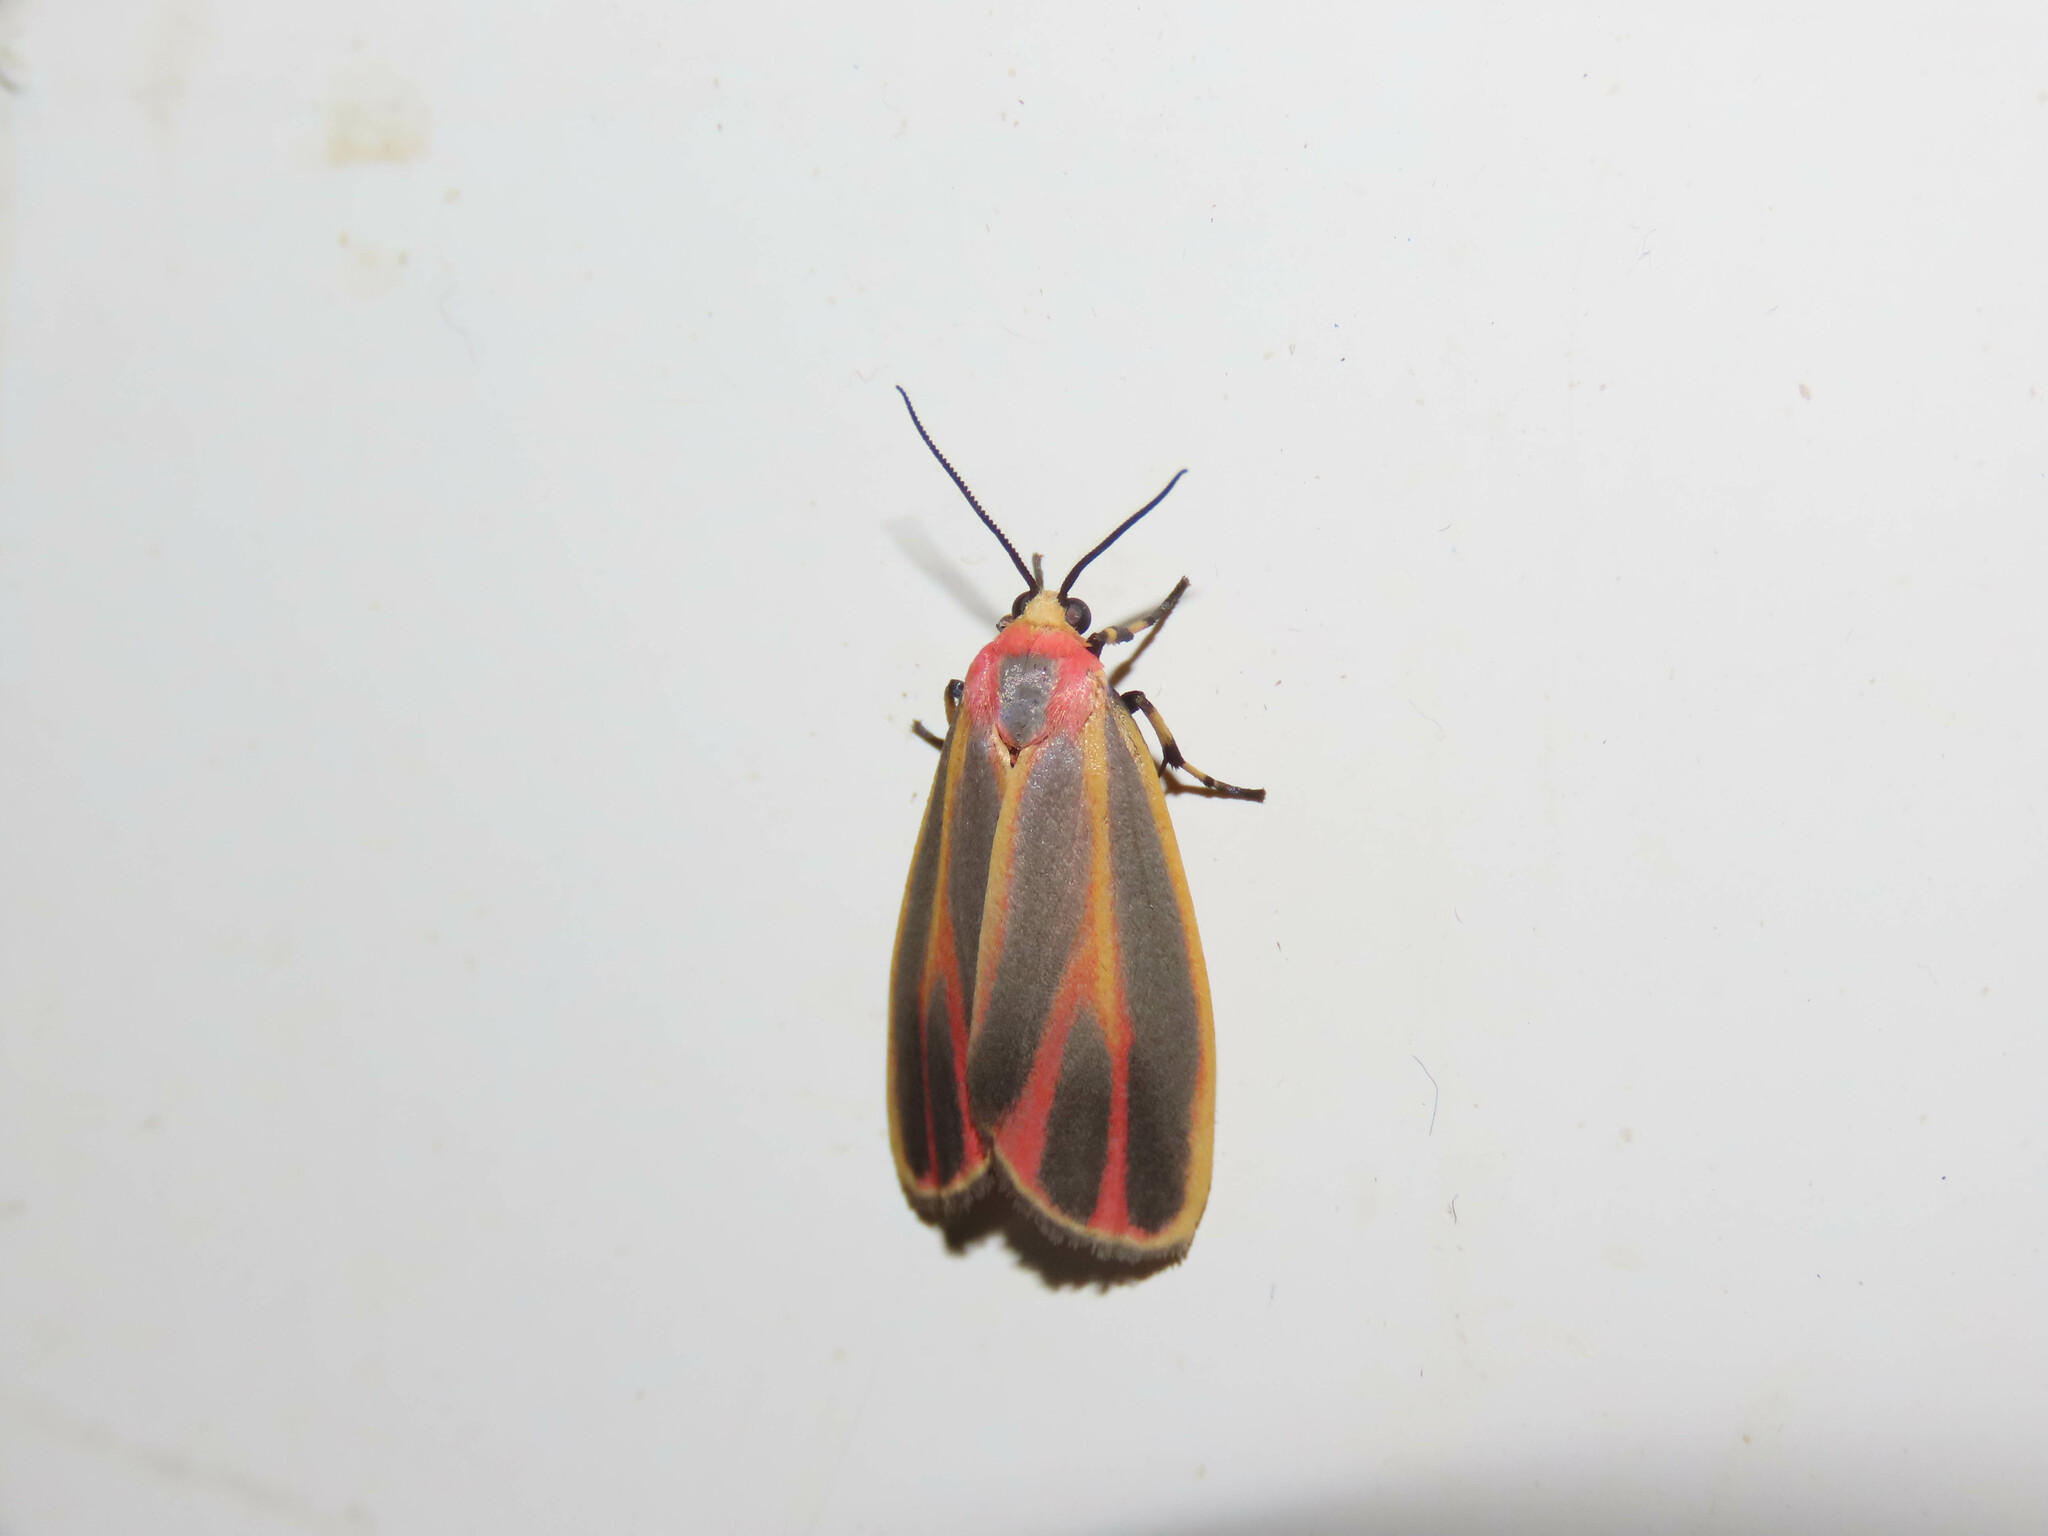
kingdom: Animalia
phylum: Arthropoda
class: Insecta
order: Lepidoptera
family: Erebidae
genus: Hypoprepia
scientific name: Hypoprepia fucosa
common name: Painted lichen moth
